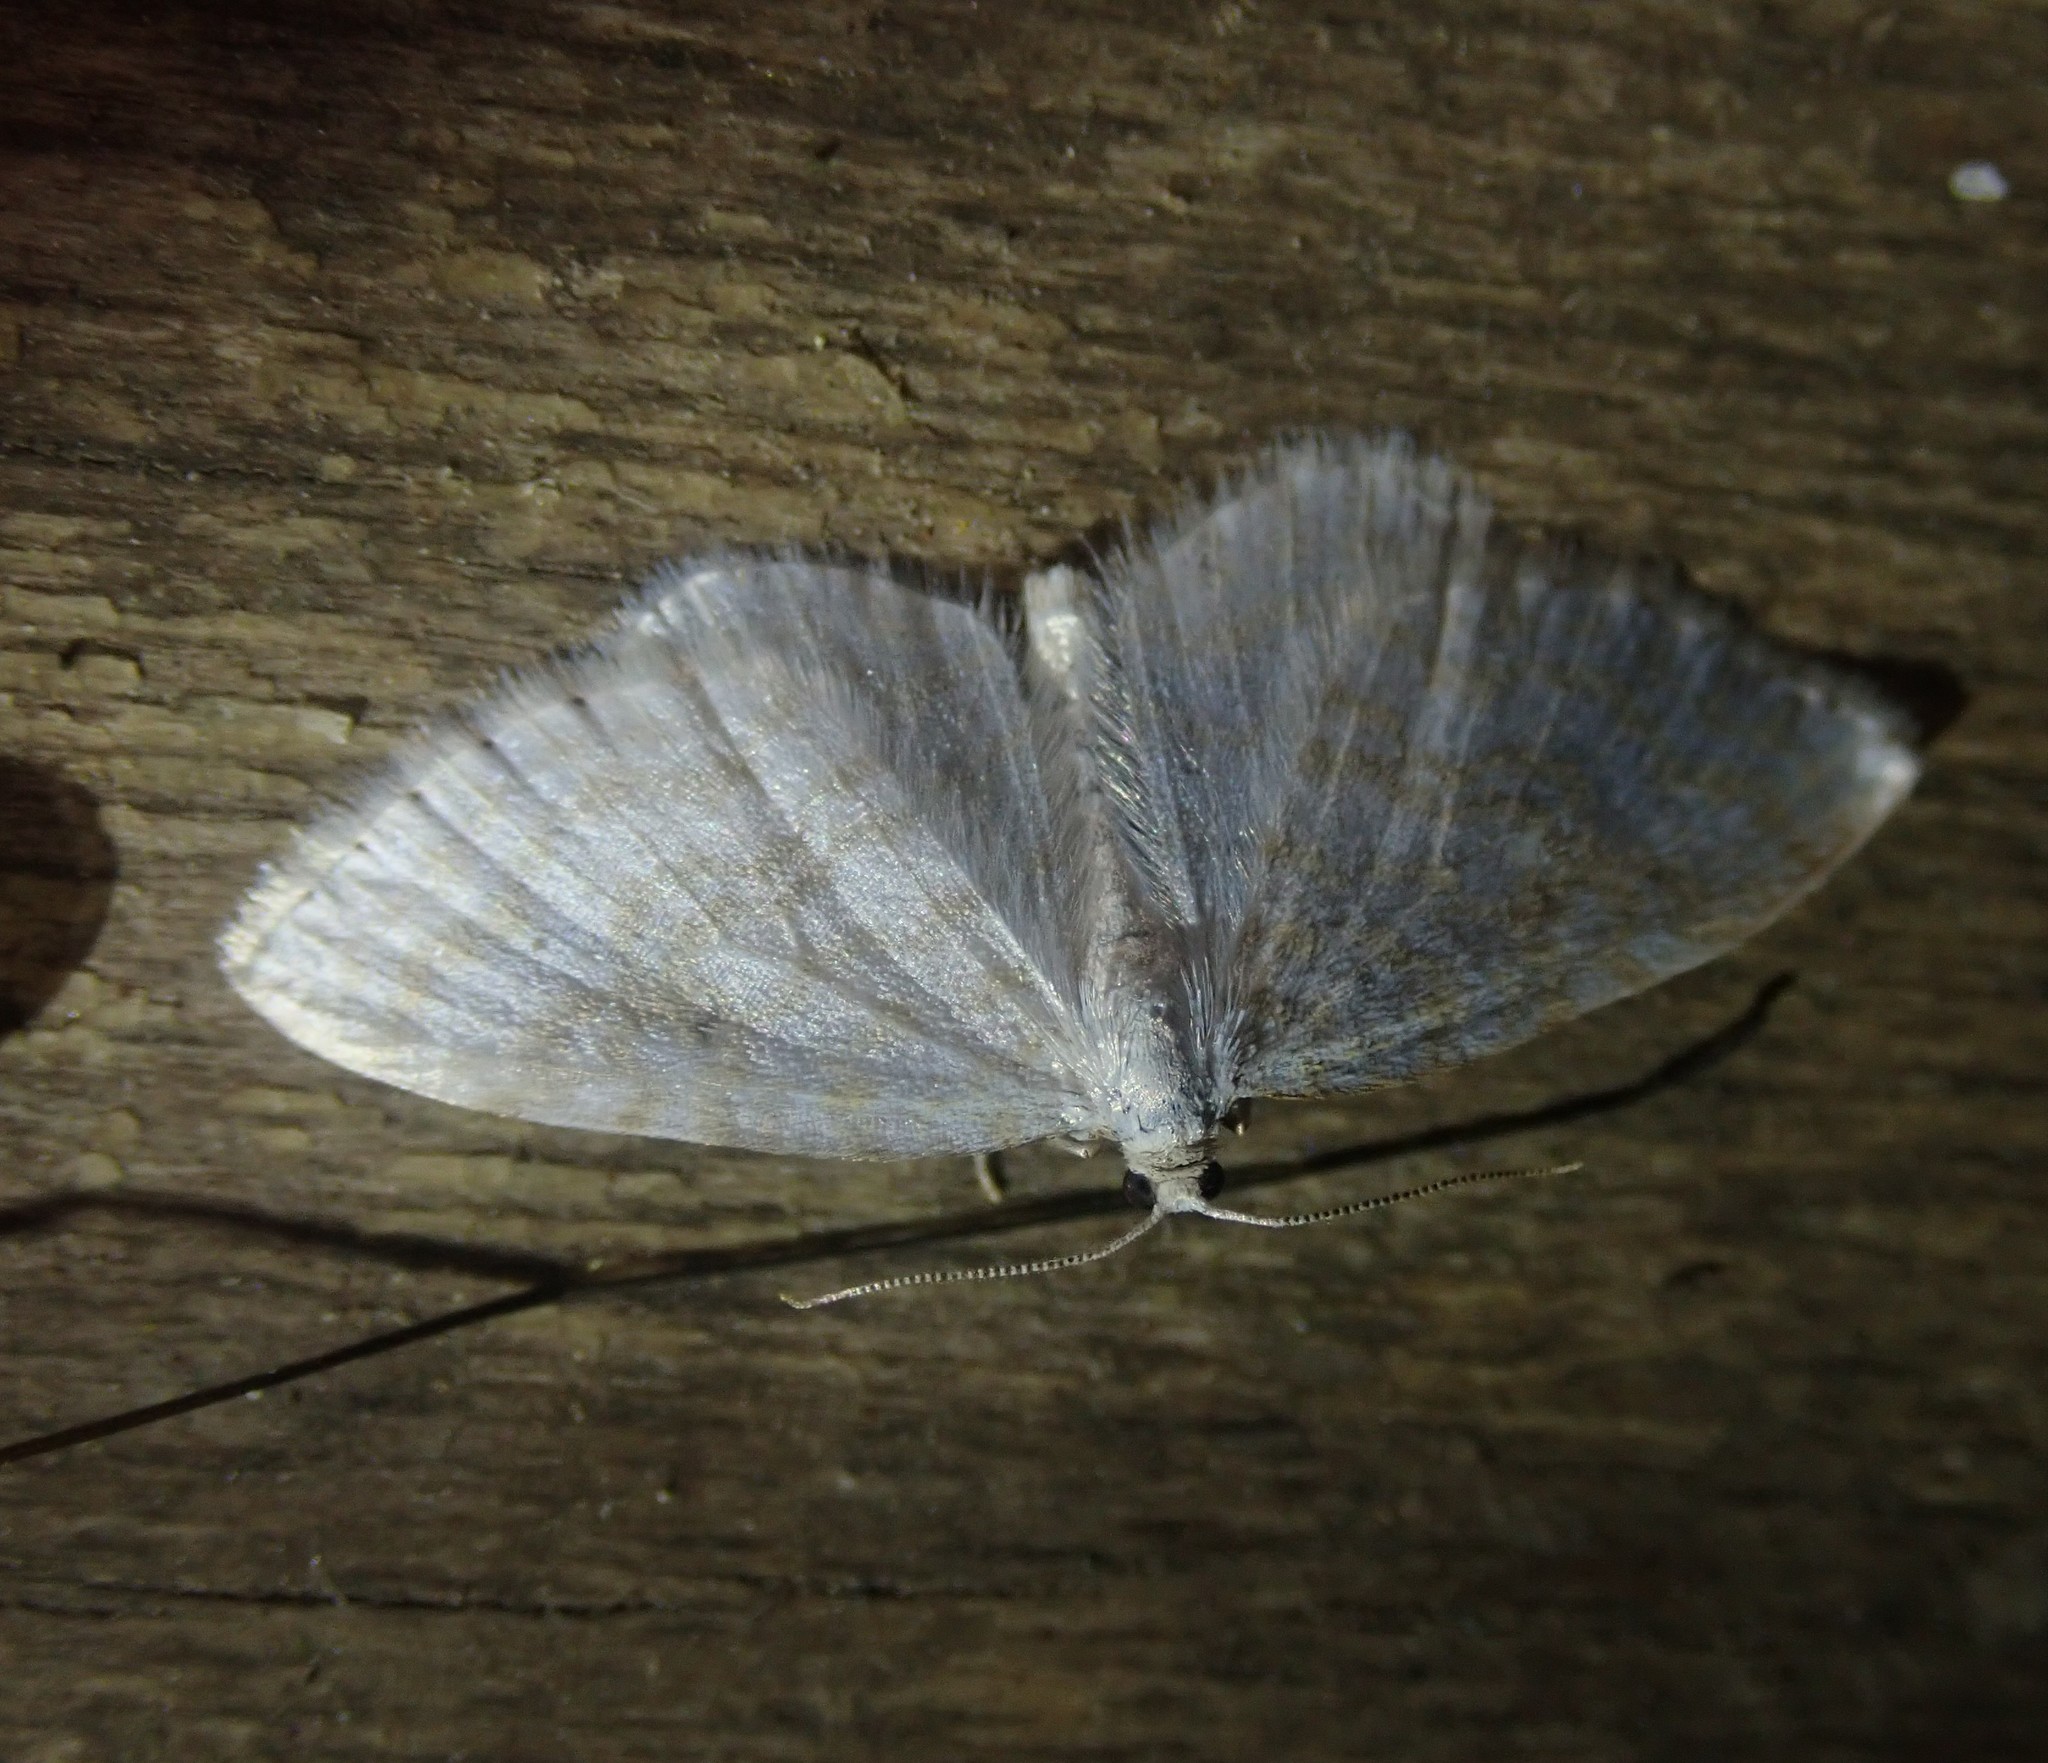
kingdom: Animalia
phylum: Arthropoda
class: Insecta
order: Lepidoptera
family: Geometridae
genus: Asthena
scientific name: Asthena albulata
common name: Small white wave
